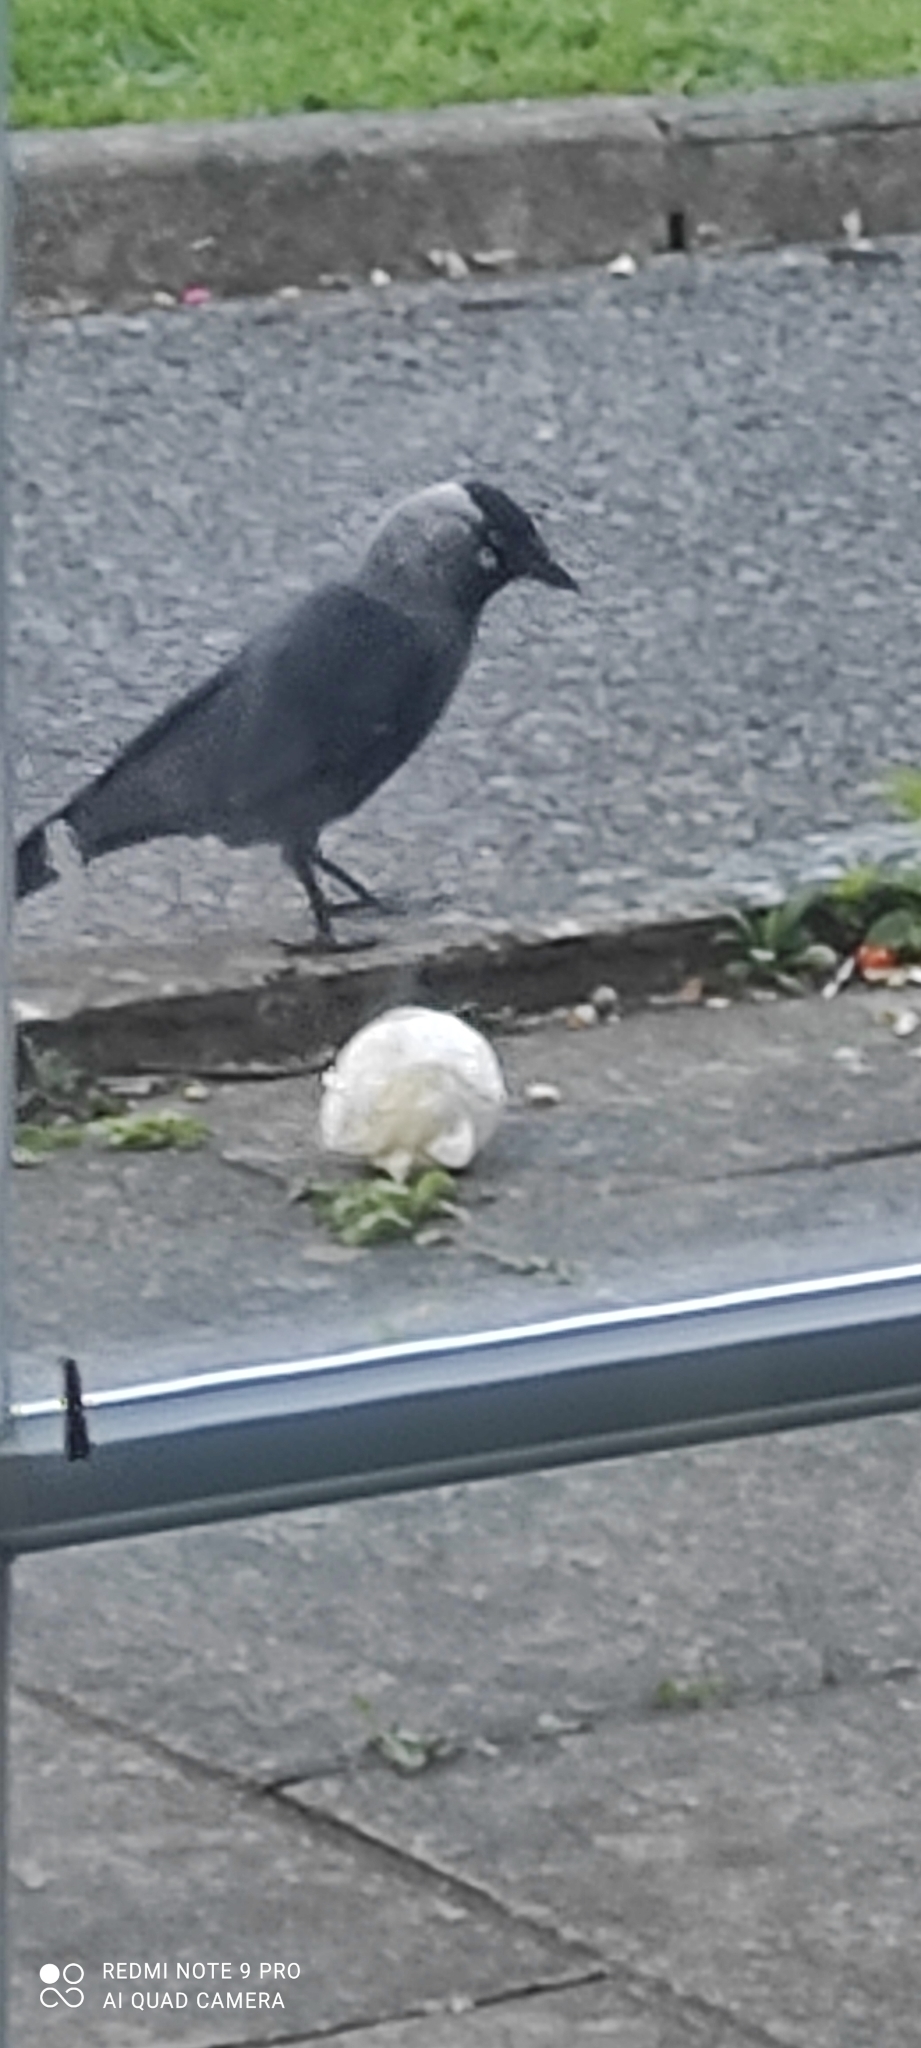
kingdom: Animalia
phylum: Chordata
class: Aves
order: Passeriformes
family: Corvidae
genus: Coloeus
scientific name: Coloeus monedula
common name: Western jackdaw
